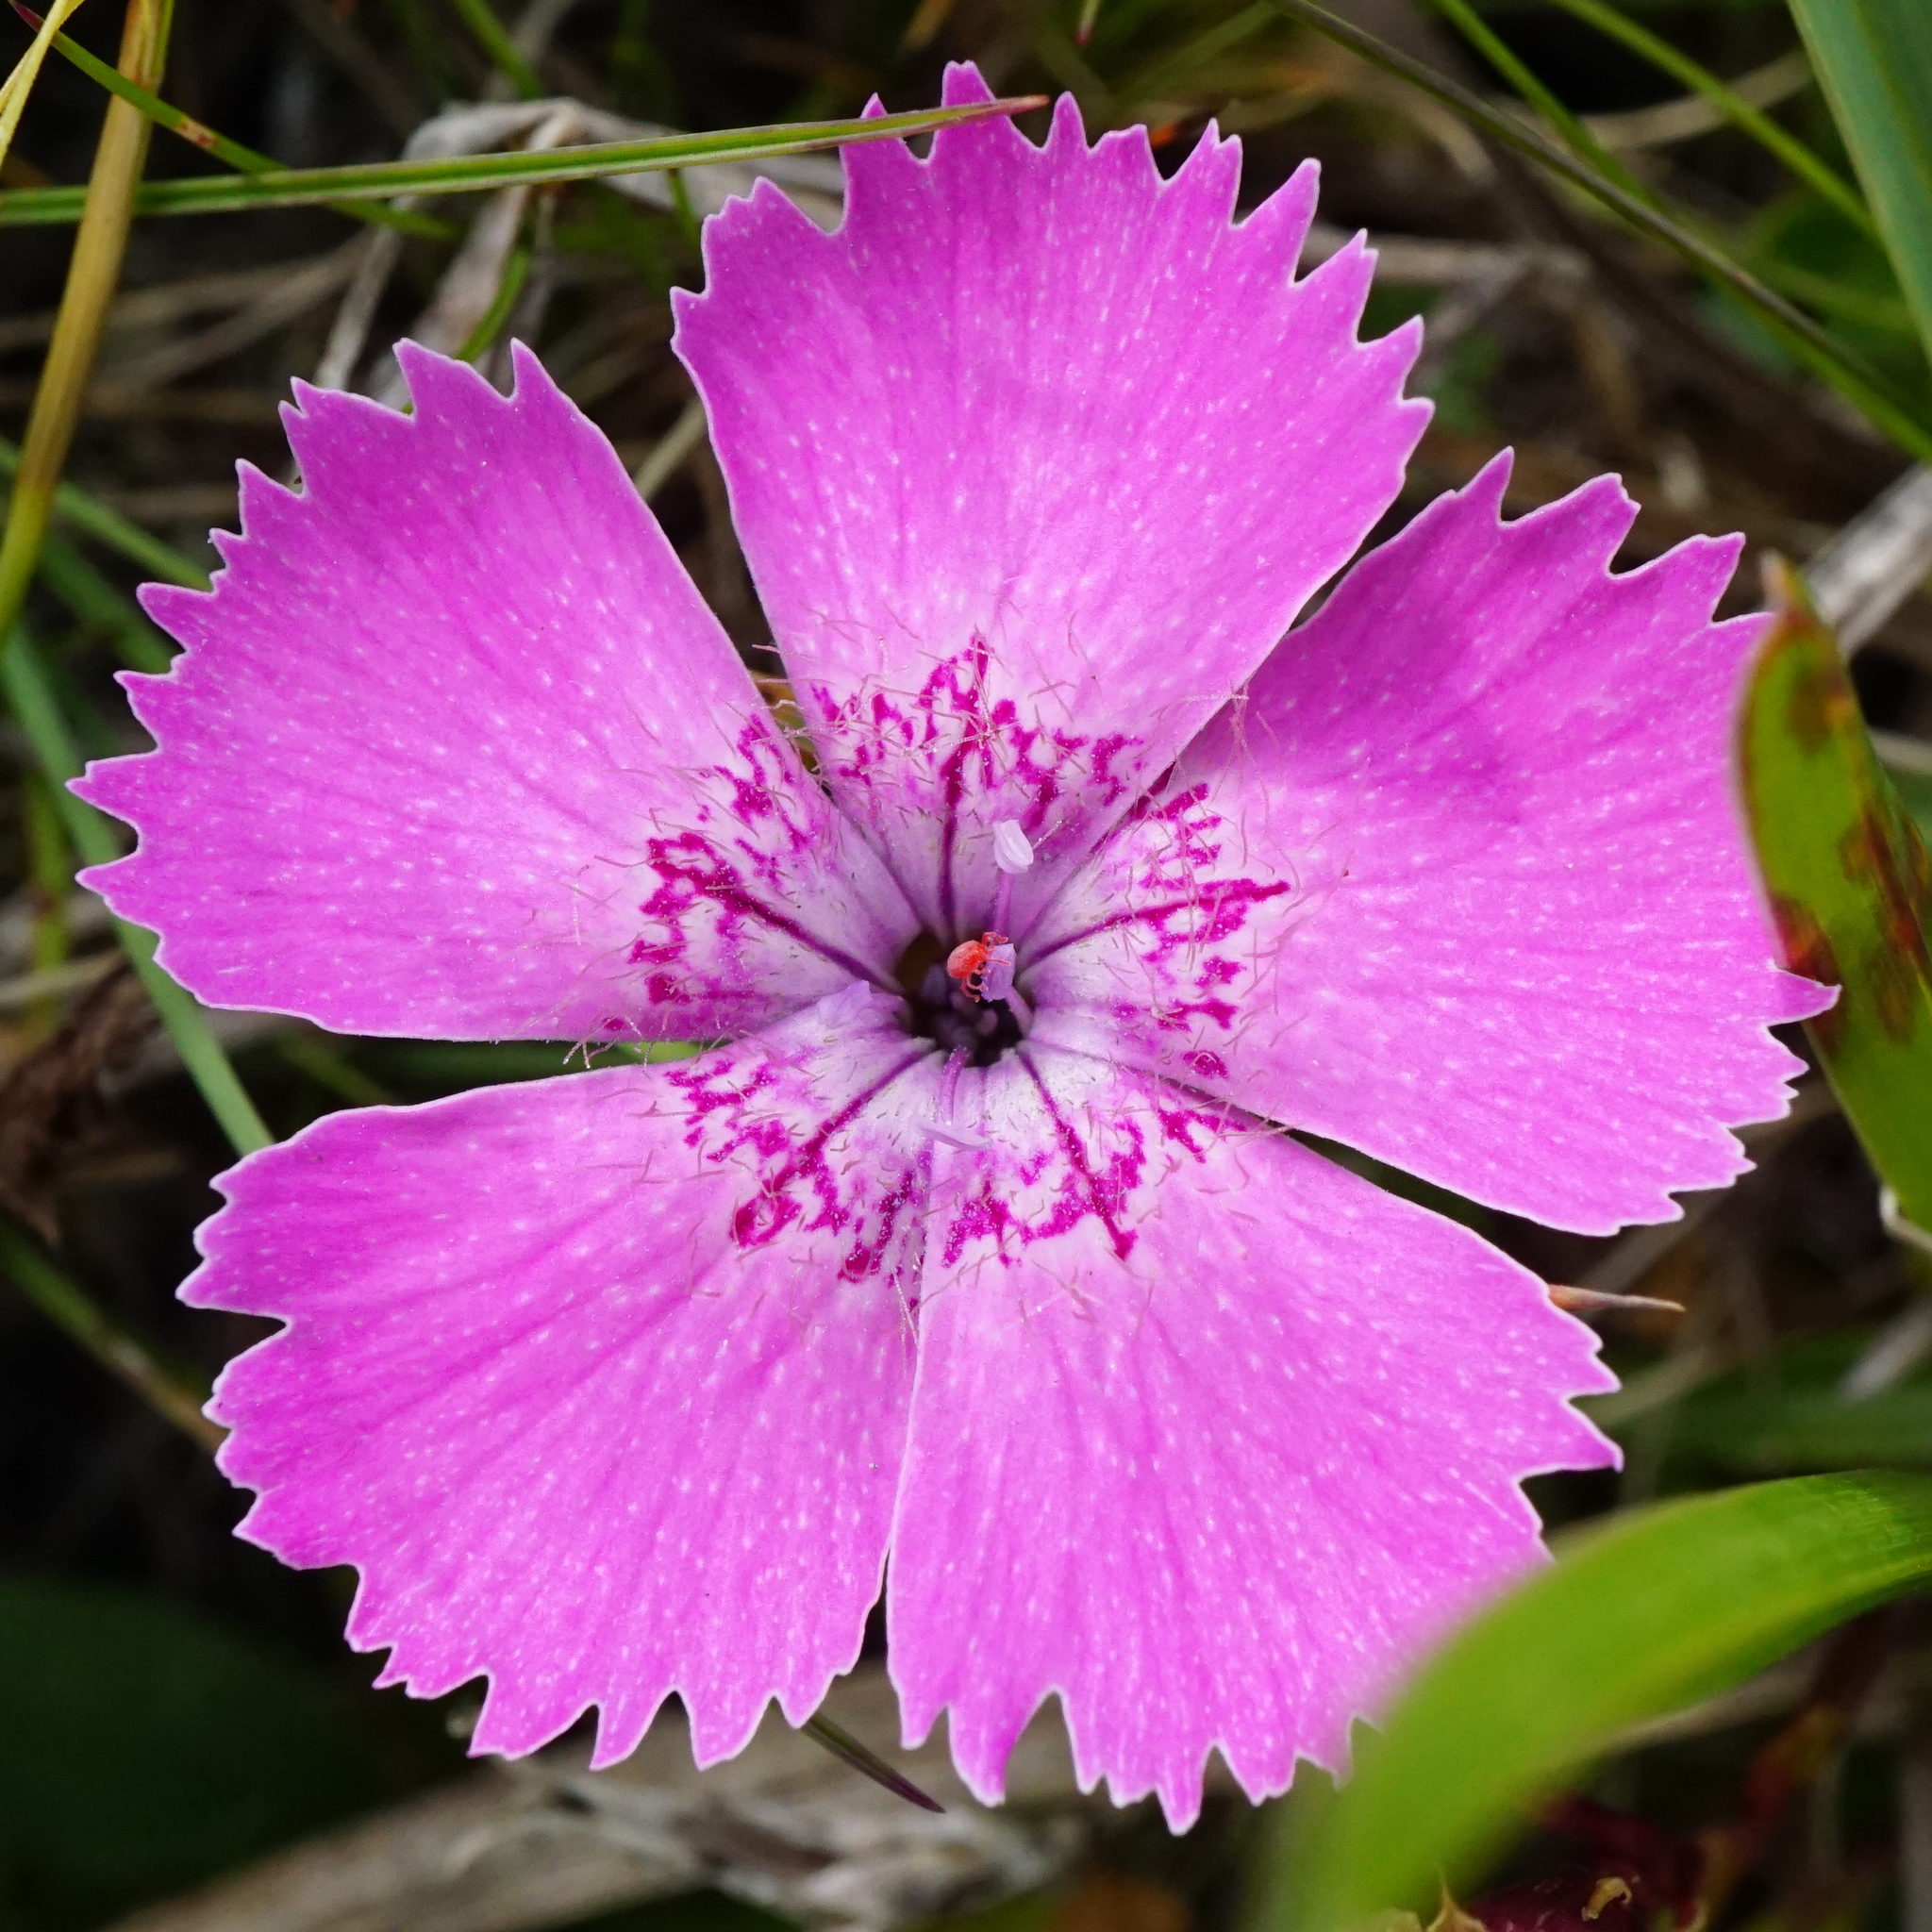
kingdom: Plantae
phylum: Tracheophyta
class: Magnoliopsida
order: Caryophyllales
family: Caryophyllaceae
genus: Dianthus
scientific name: Dianthus alpinus
